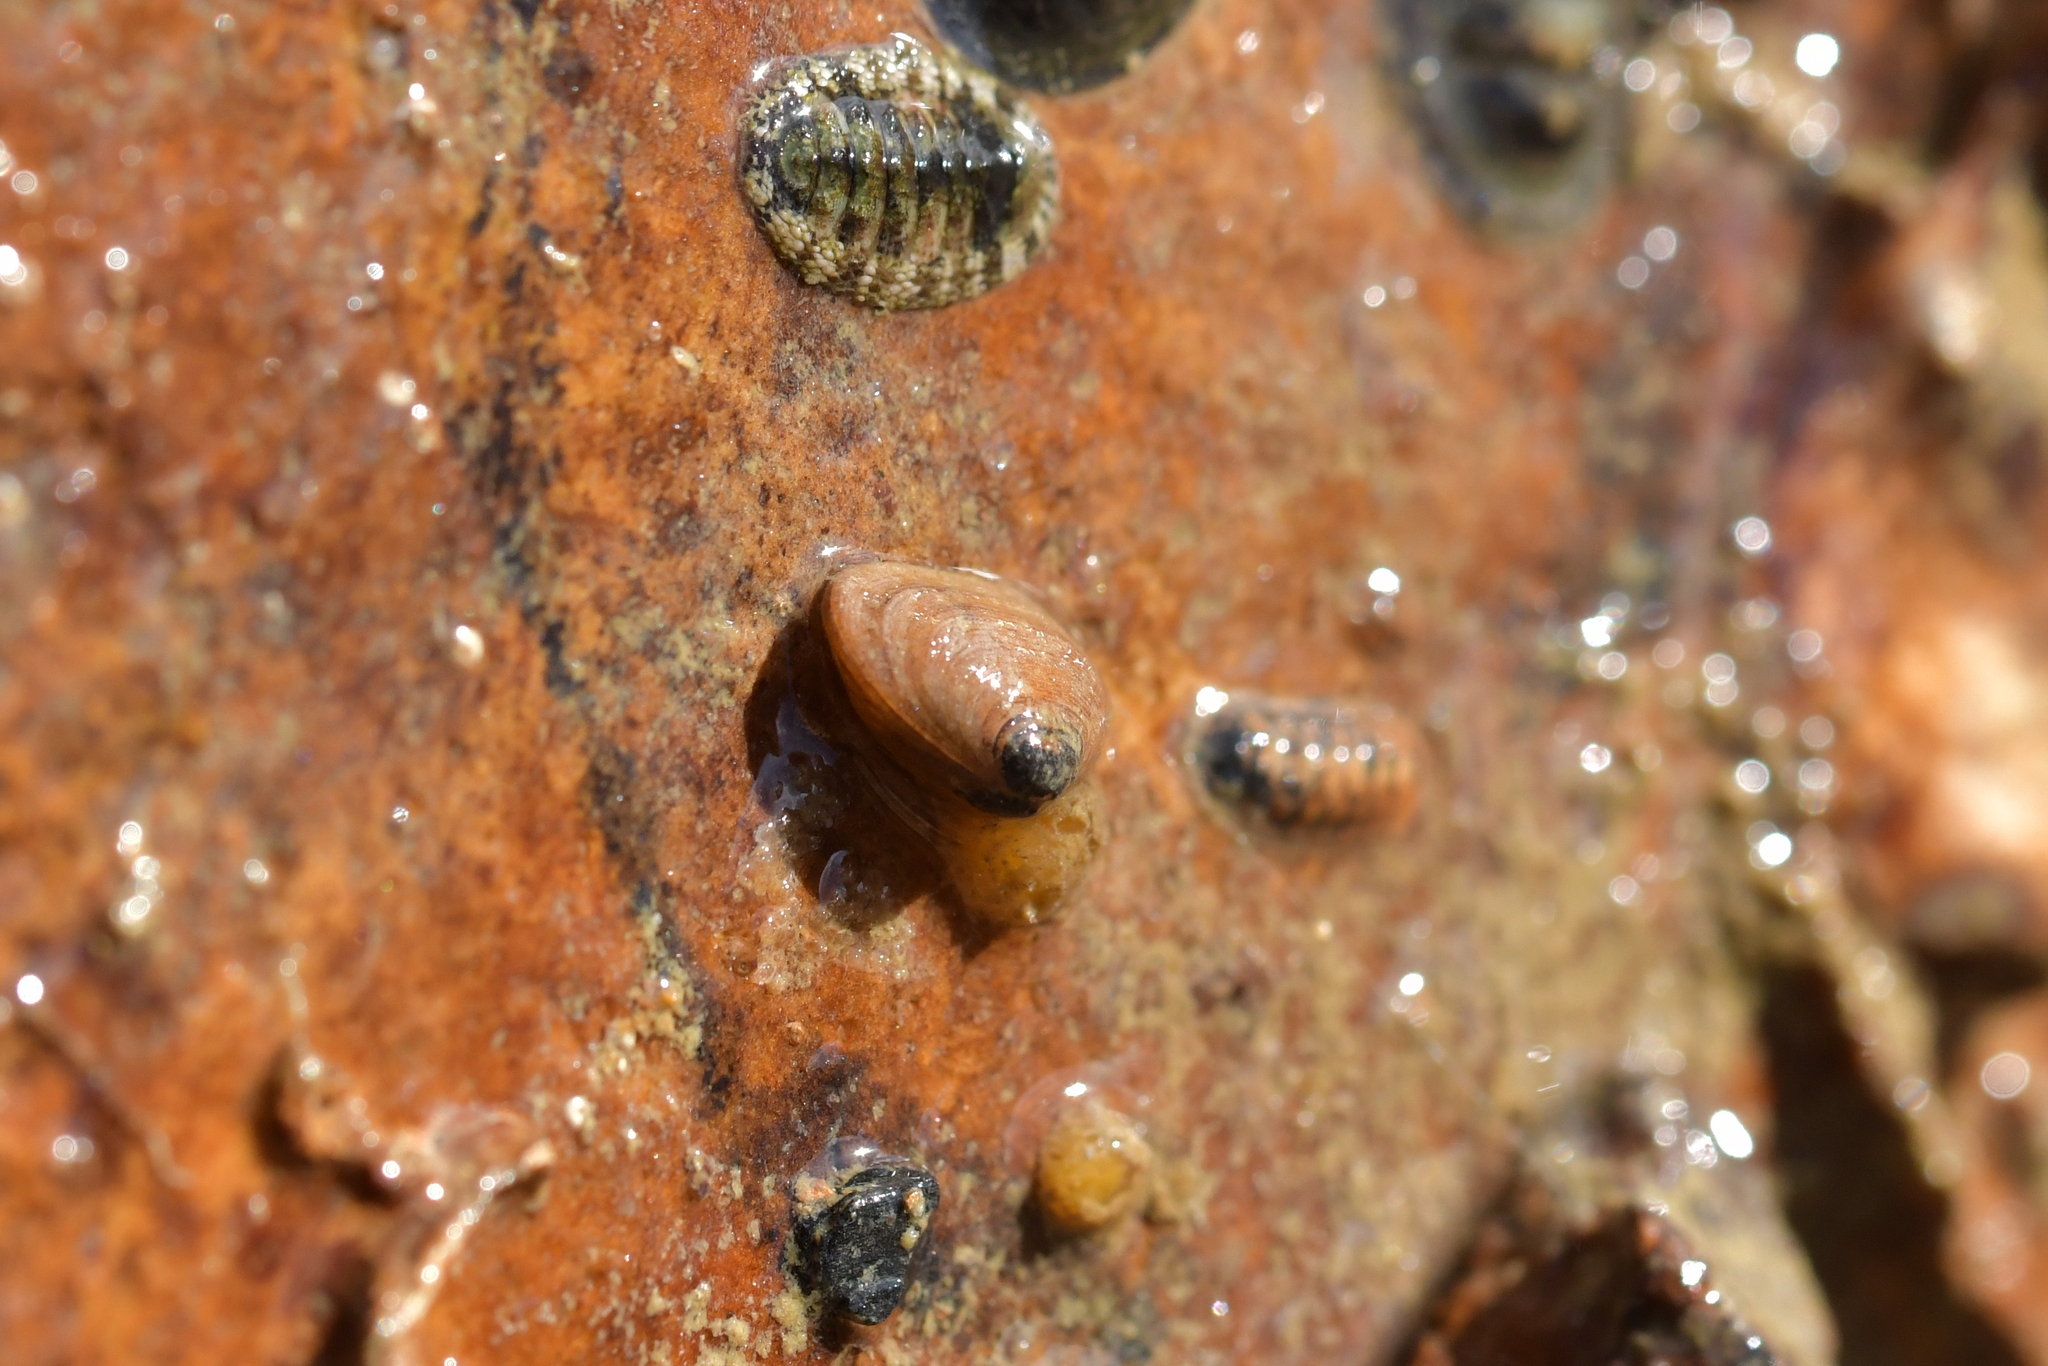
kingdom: Animalia
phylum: Mollusca
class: Bivalvia
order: Galeommatida
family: Lasaeidae
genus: Borniola
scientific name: Borniola reniformis
